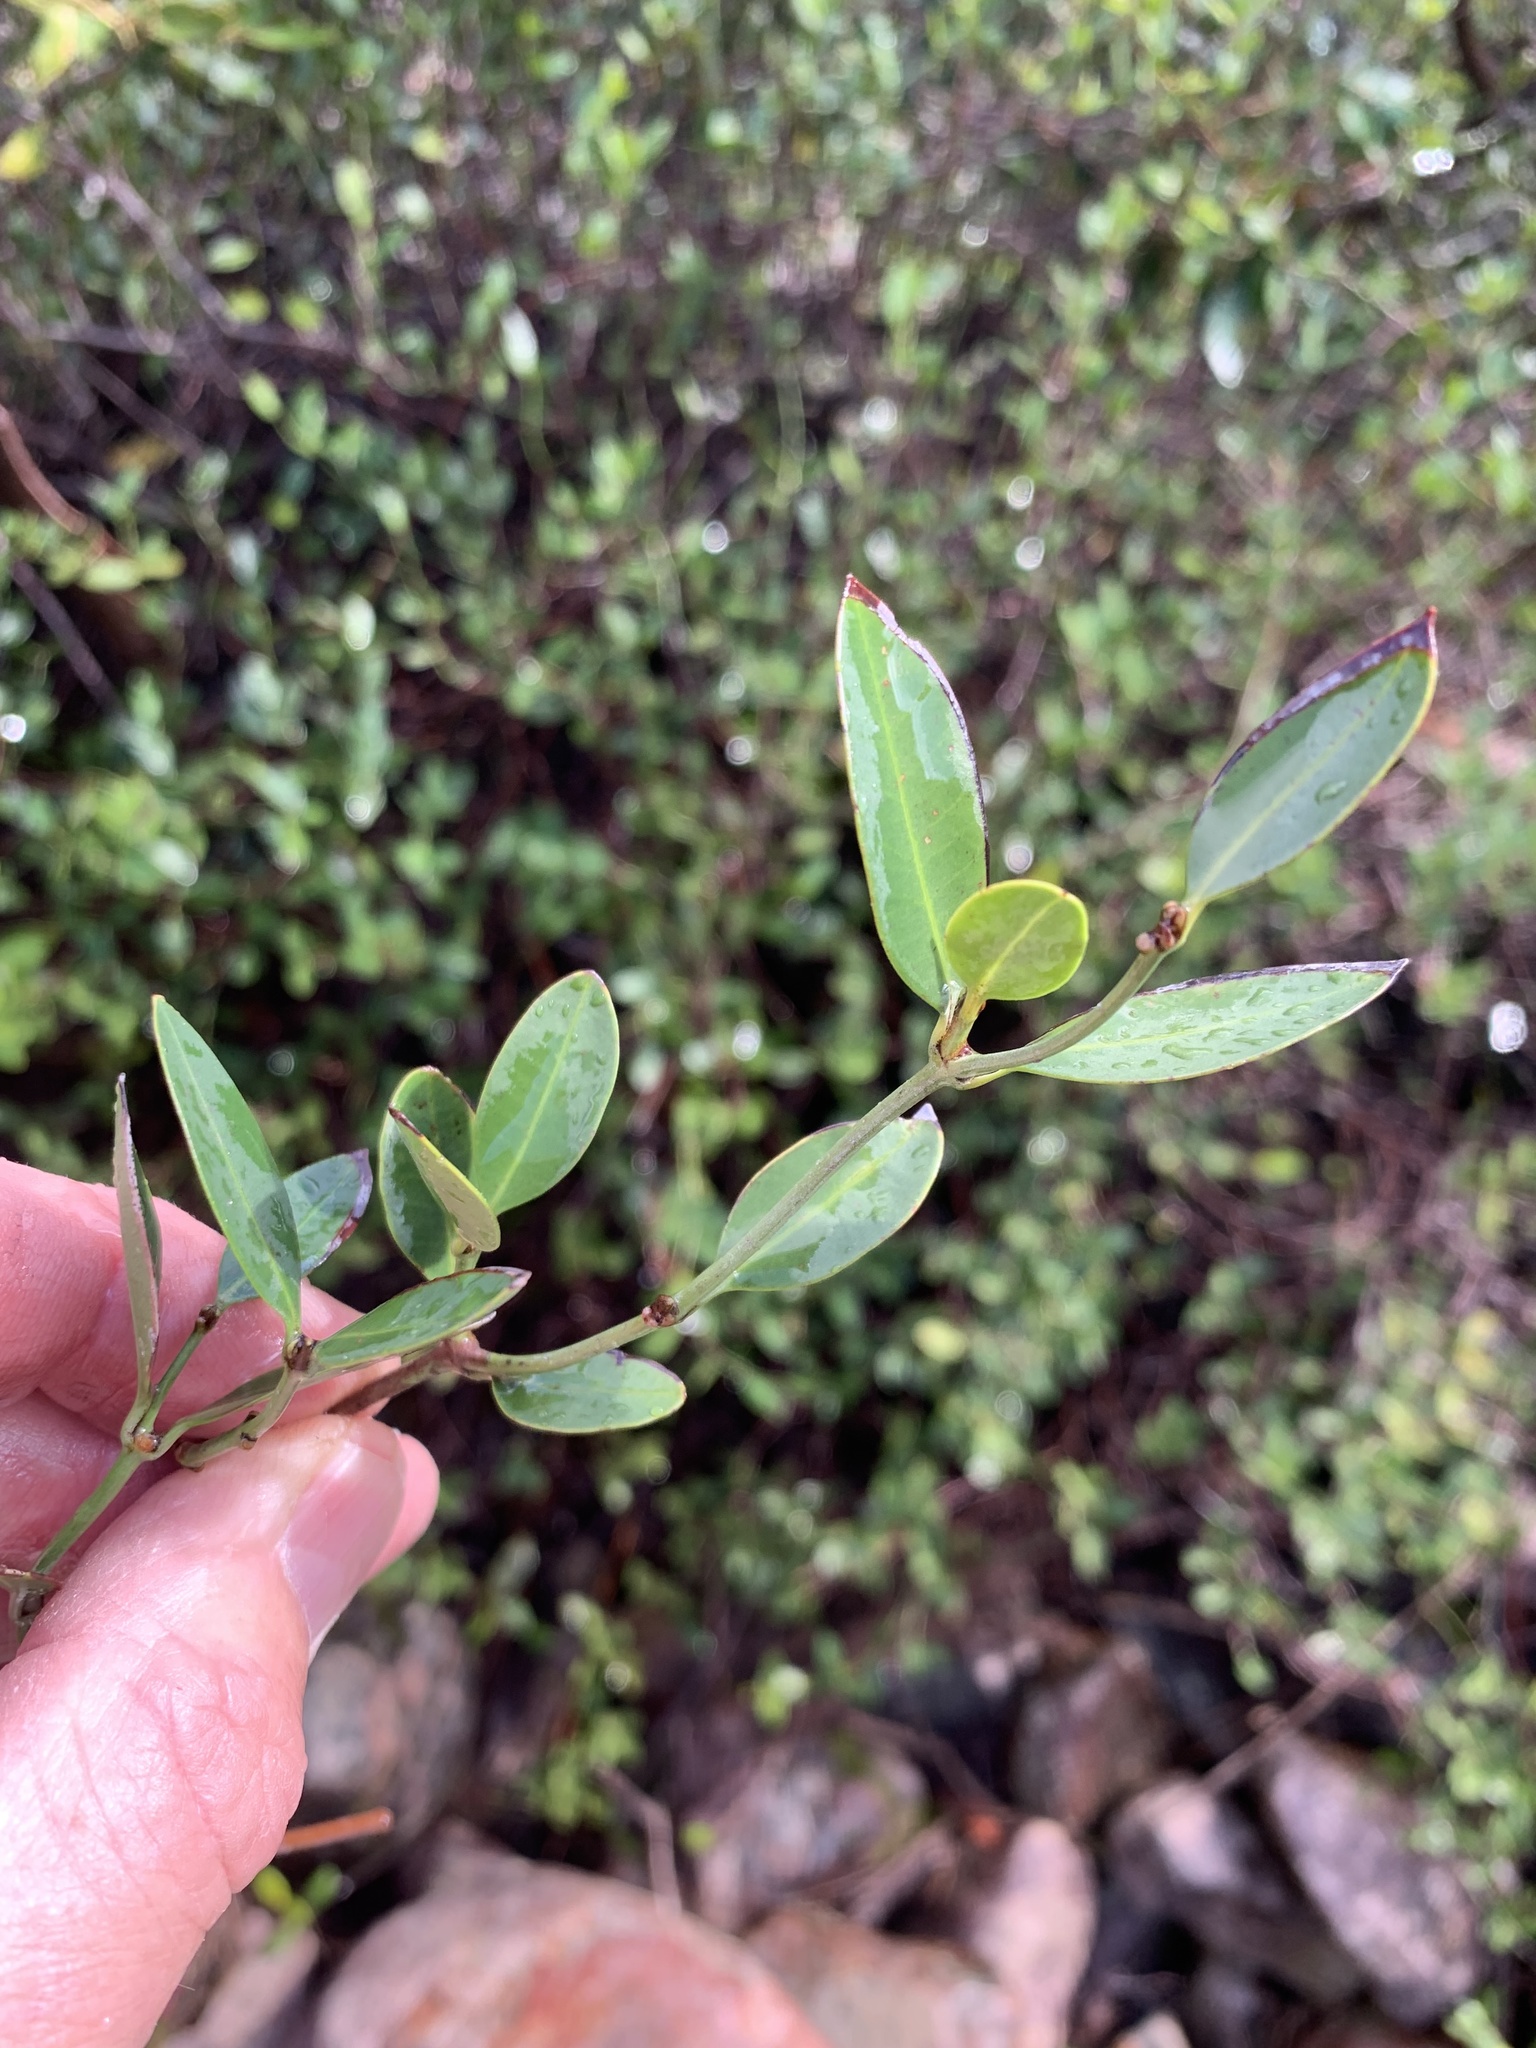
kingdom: Plantae
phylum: Tracheophyta
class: Magnoliopsida
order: Gentianales
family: Apocynaceae
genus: Secamone
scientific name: Secamone alpini
